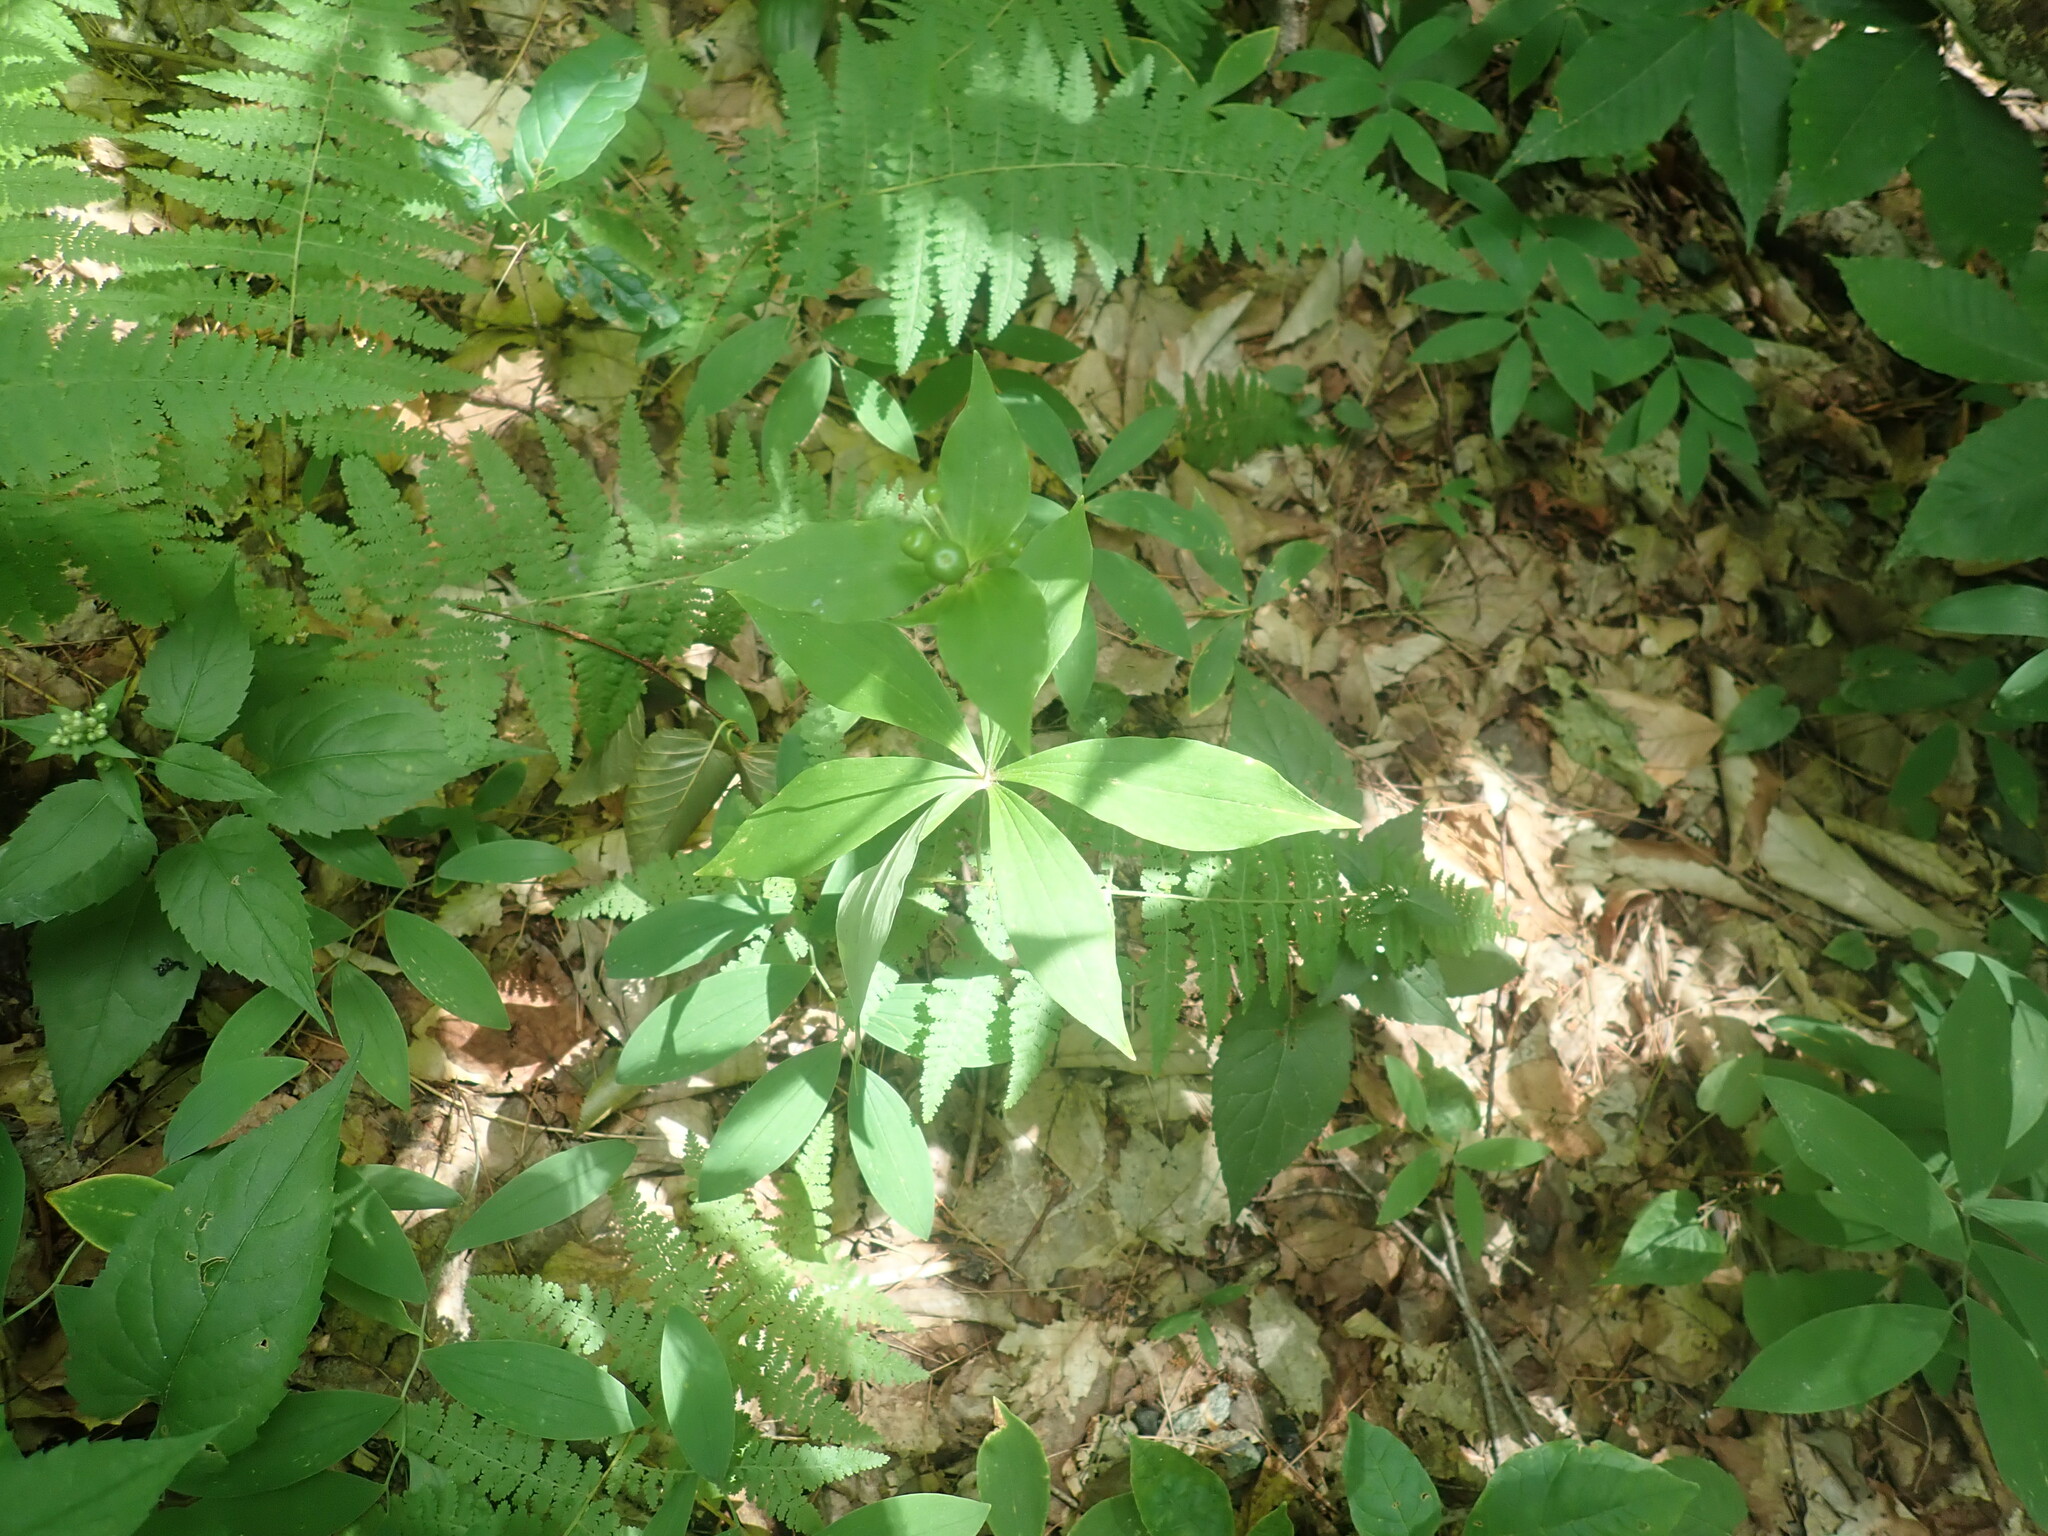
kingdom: Plantae
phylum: Tracheophyta
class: Liliopsida
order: Liliales
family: Liliaceae
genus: Medeola
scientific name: Medeola virginiana
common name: Indian cucumber-root
